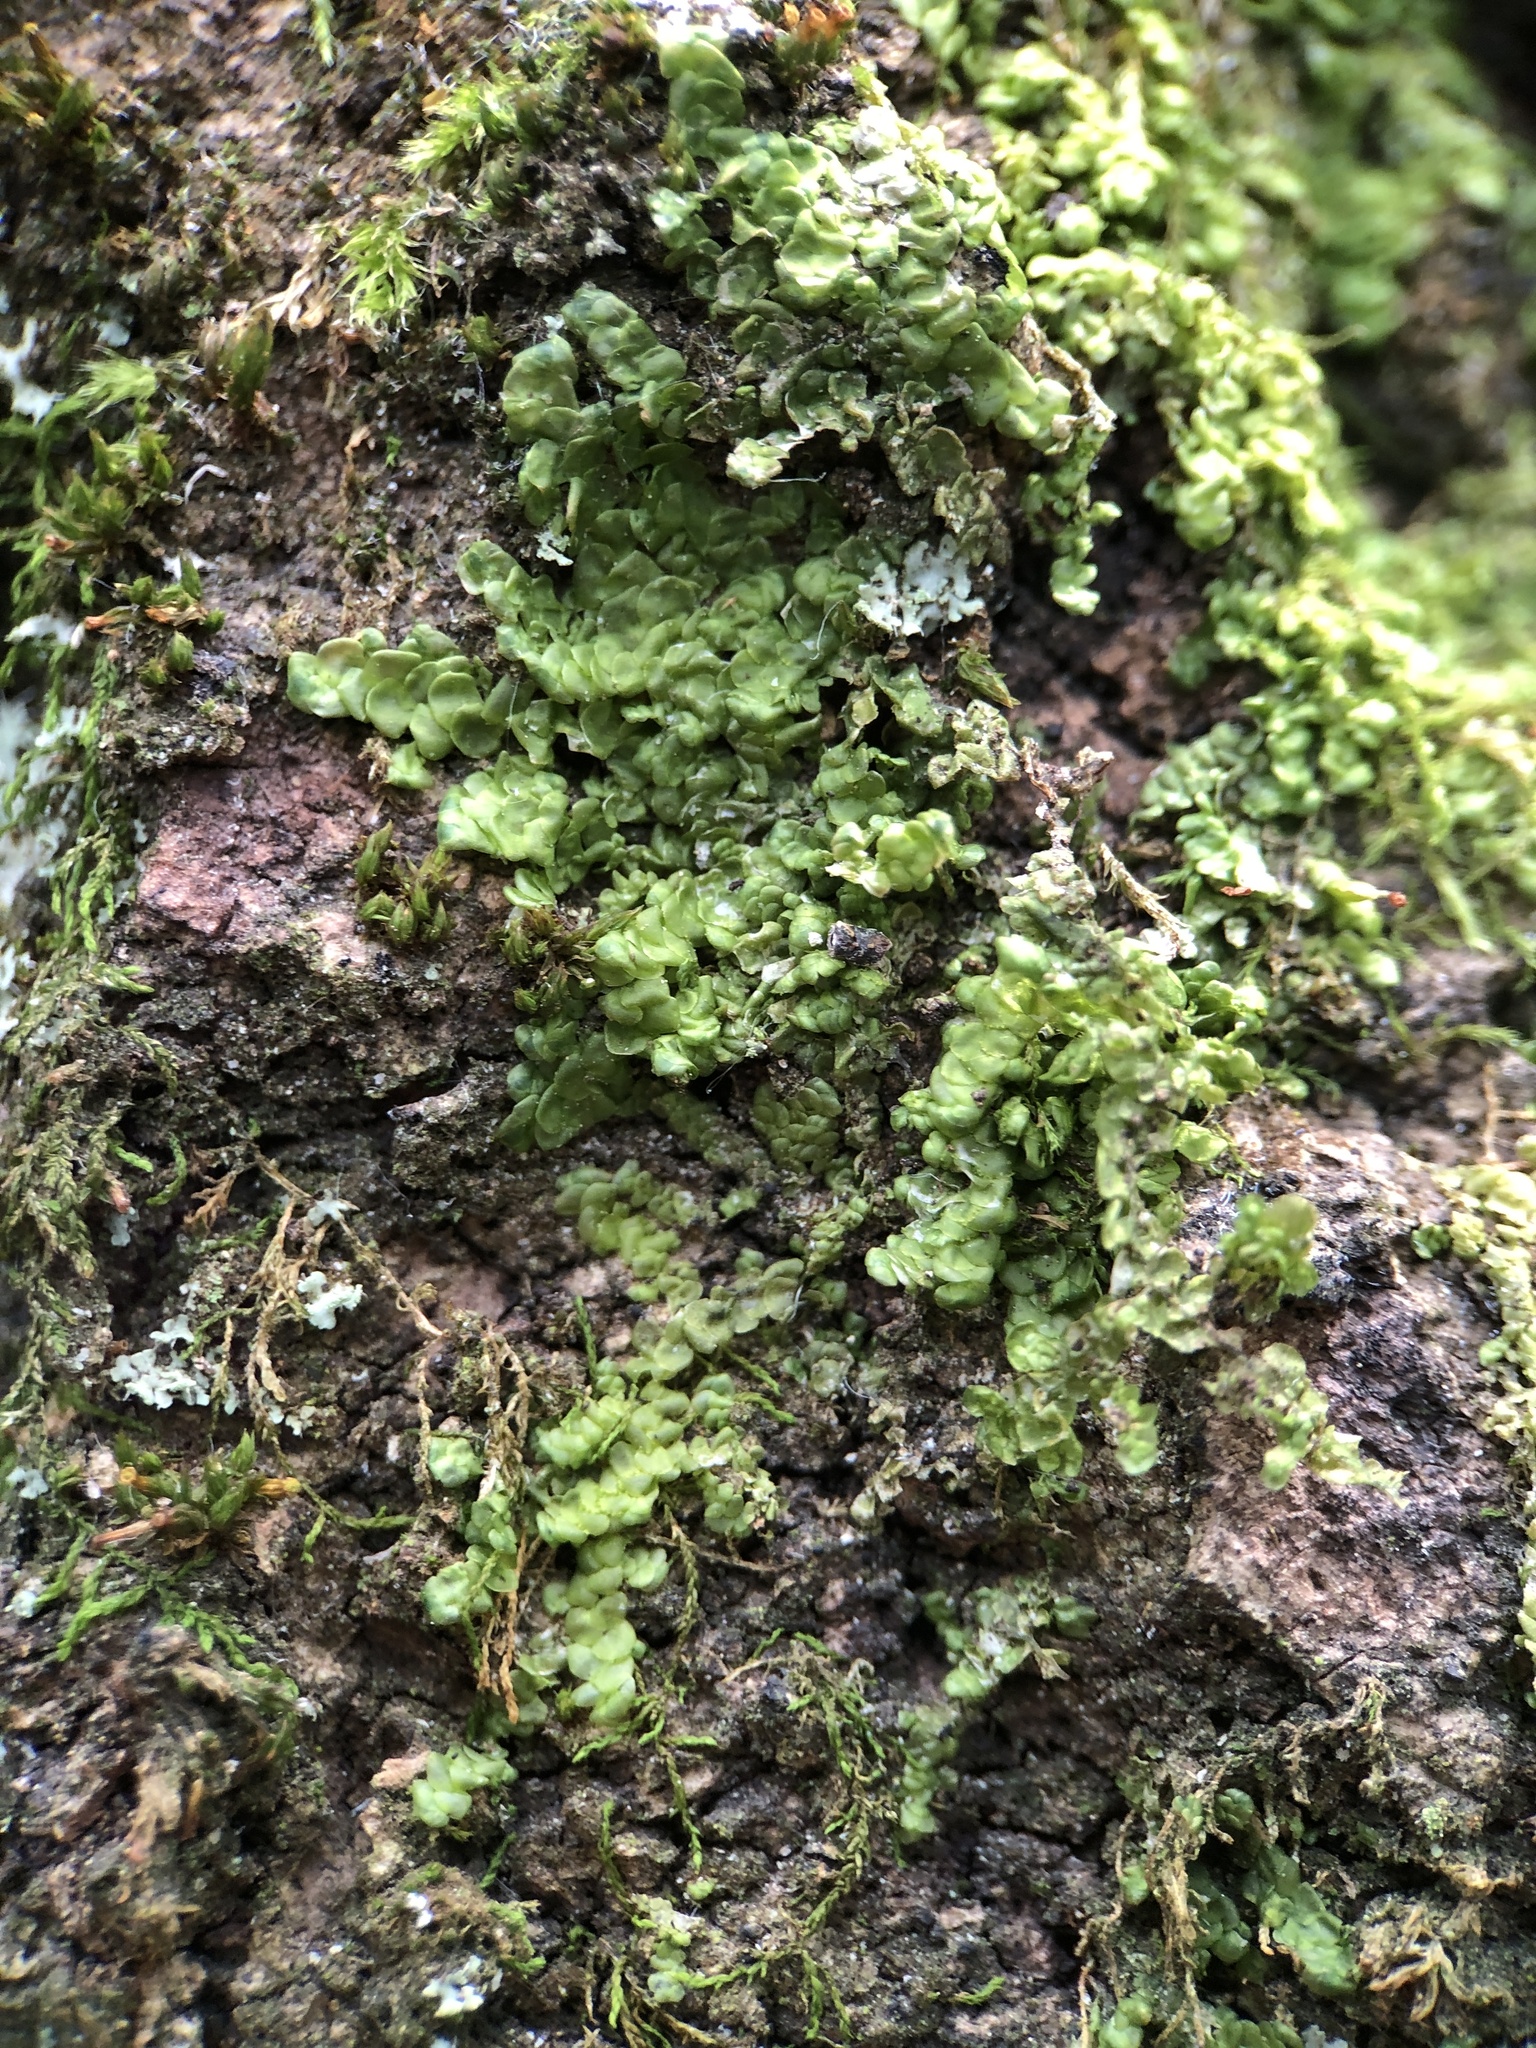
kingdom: Plantae
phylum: Marchantiophyta
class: Jungermanniopsida
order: Porellales
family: Radulaceae
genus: Radula
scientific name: Radula complanata
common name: Flat-leaved scalewort
